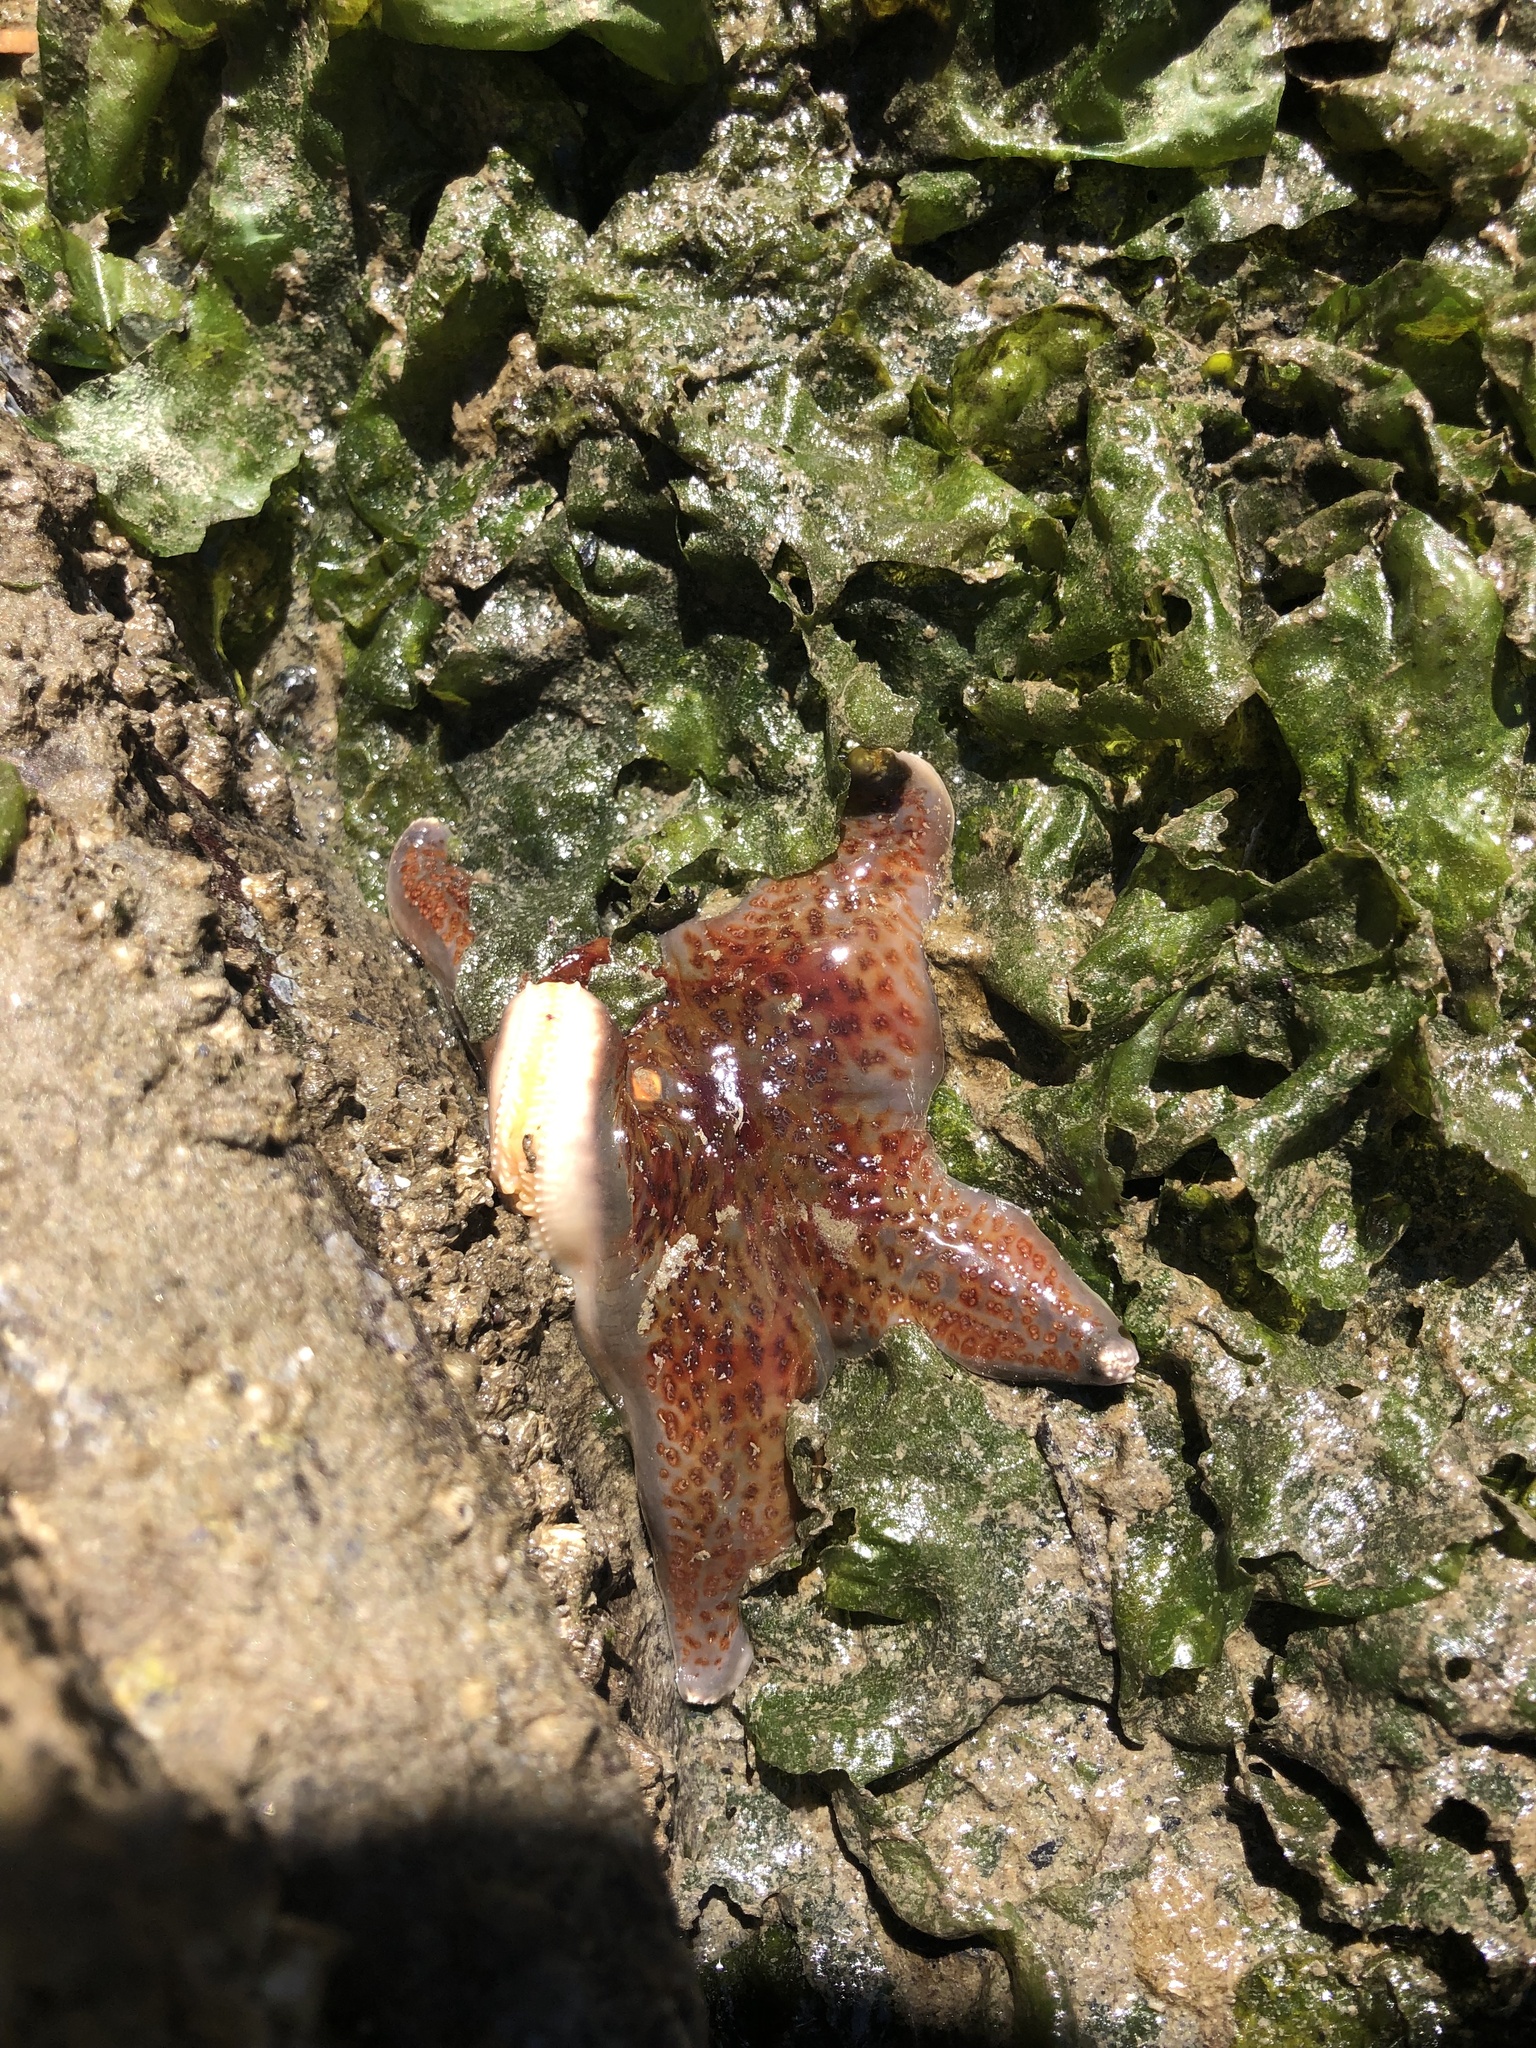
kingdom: Animalia
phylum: Echinodermata
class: Asteroidea
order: Valvatida
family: Asteropseidae
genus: Dermasterias
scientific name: Dermasterias imbricata
